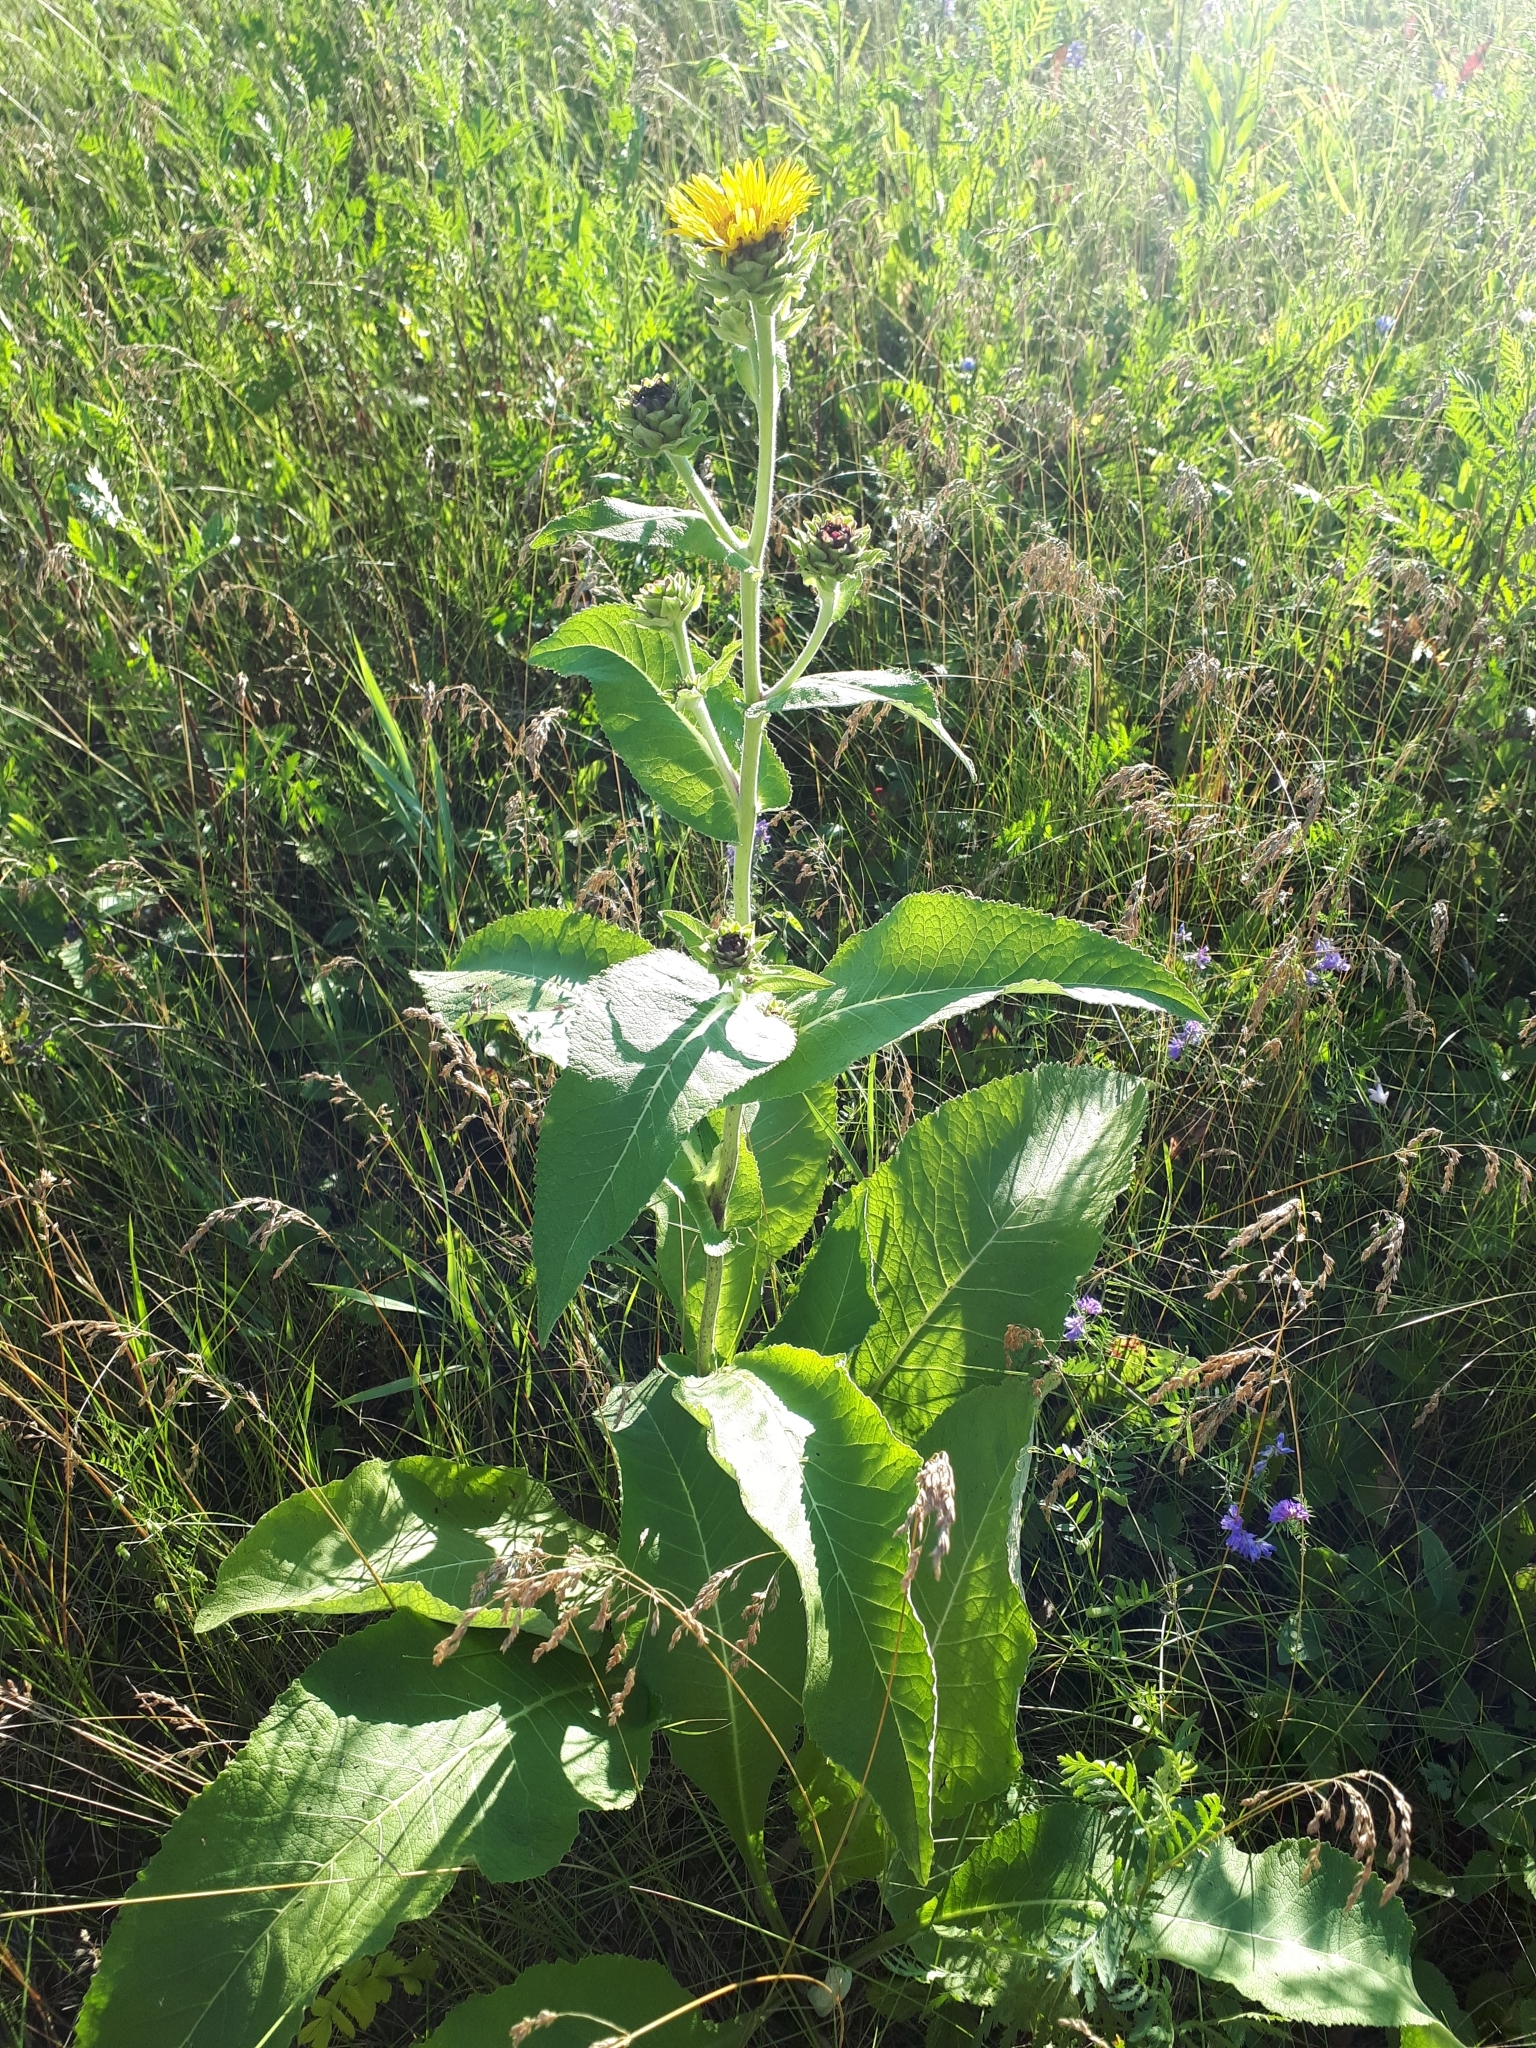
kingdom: Plantae
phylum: Tracheophyta
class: Magnoliopsida
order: Asterales
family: Asteraceae
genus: Inula
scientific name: Inula helenium
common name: Elecampane
